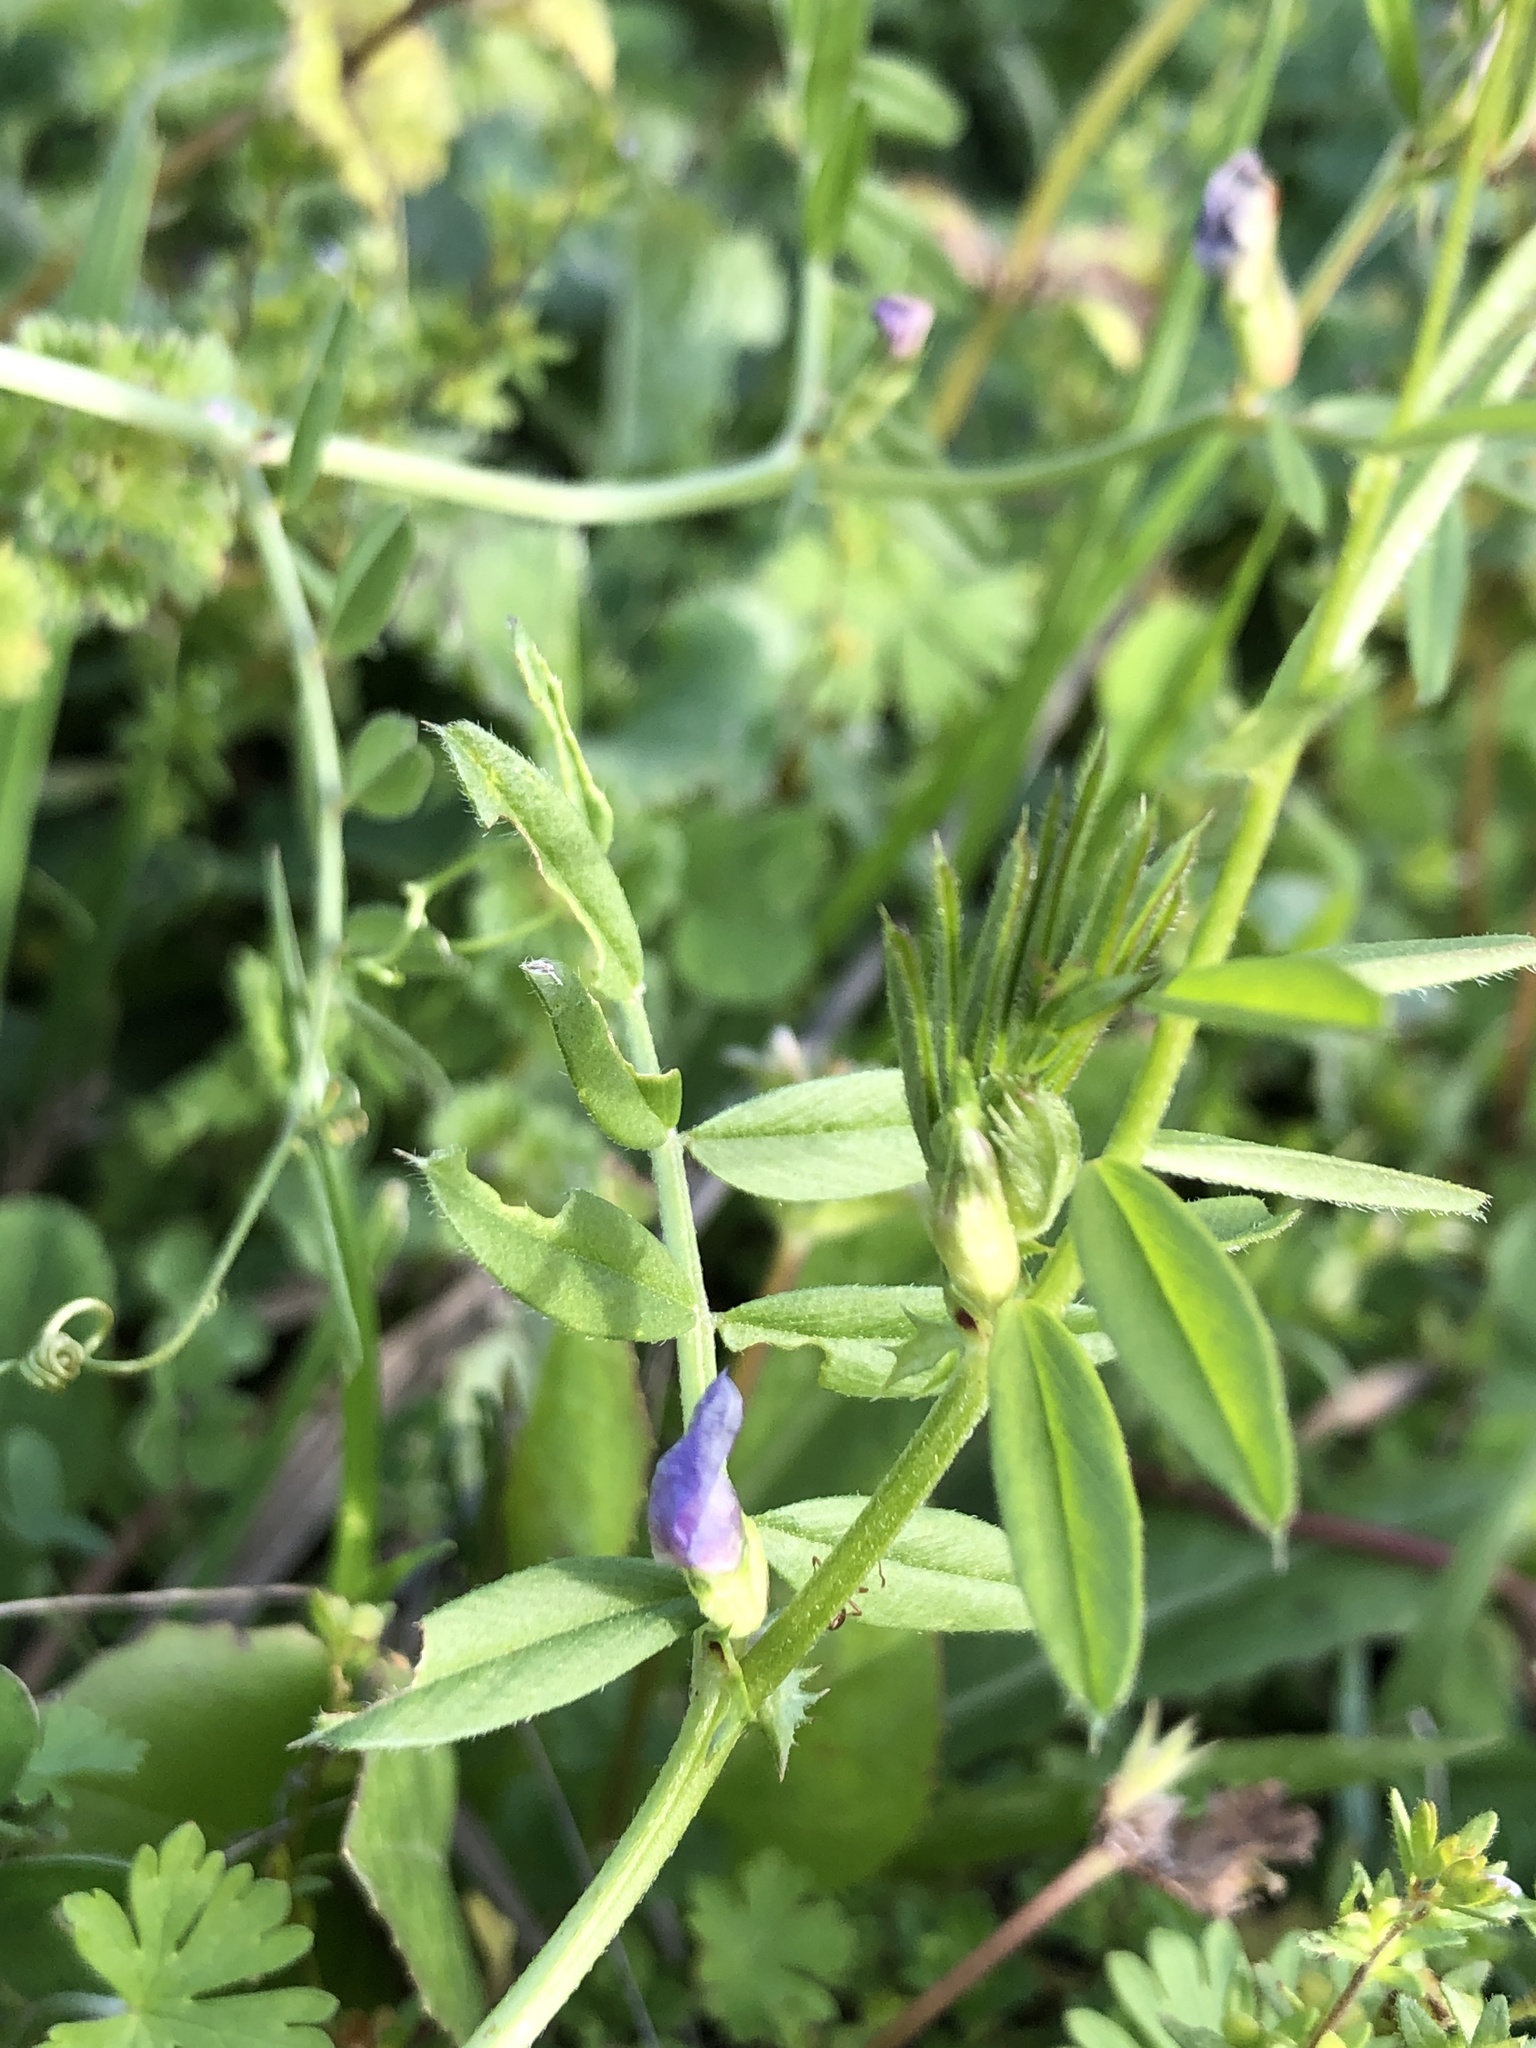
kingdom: Plantae
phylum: Tracheophyta
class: Magnoliopsida
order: Fabales
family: Fabaceae
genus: Vicia
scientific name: Vicia sativa
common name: Garden vetch
